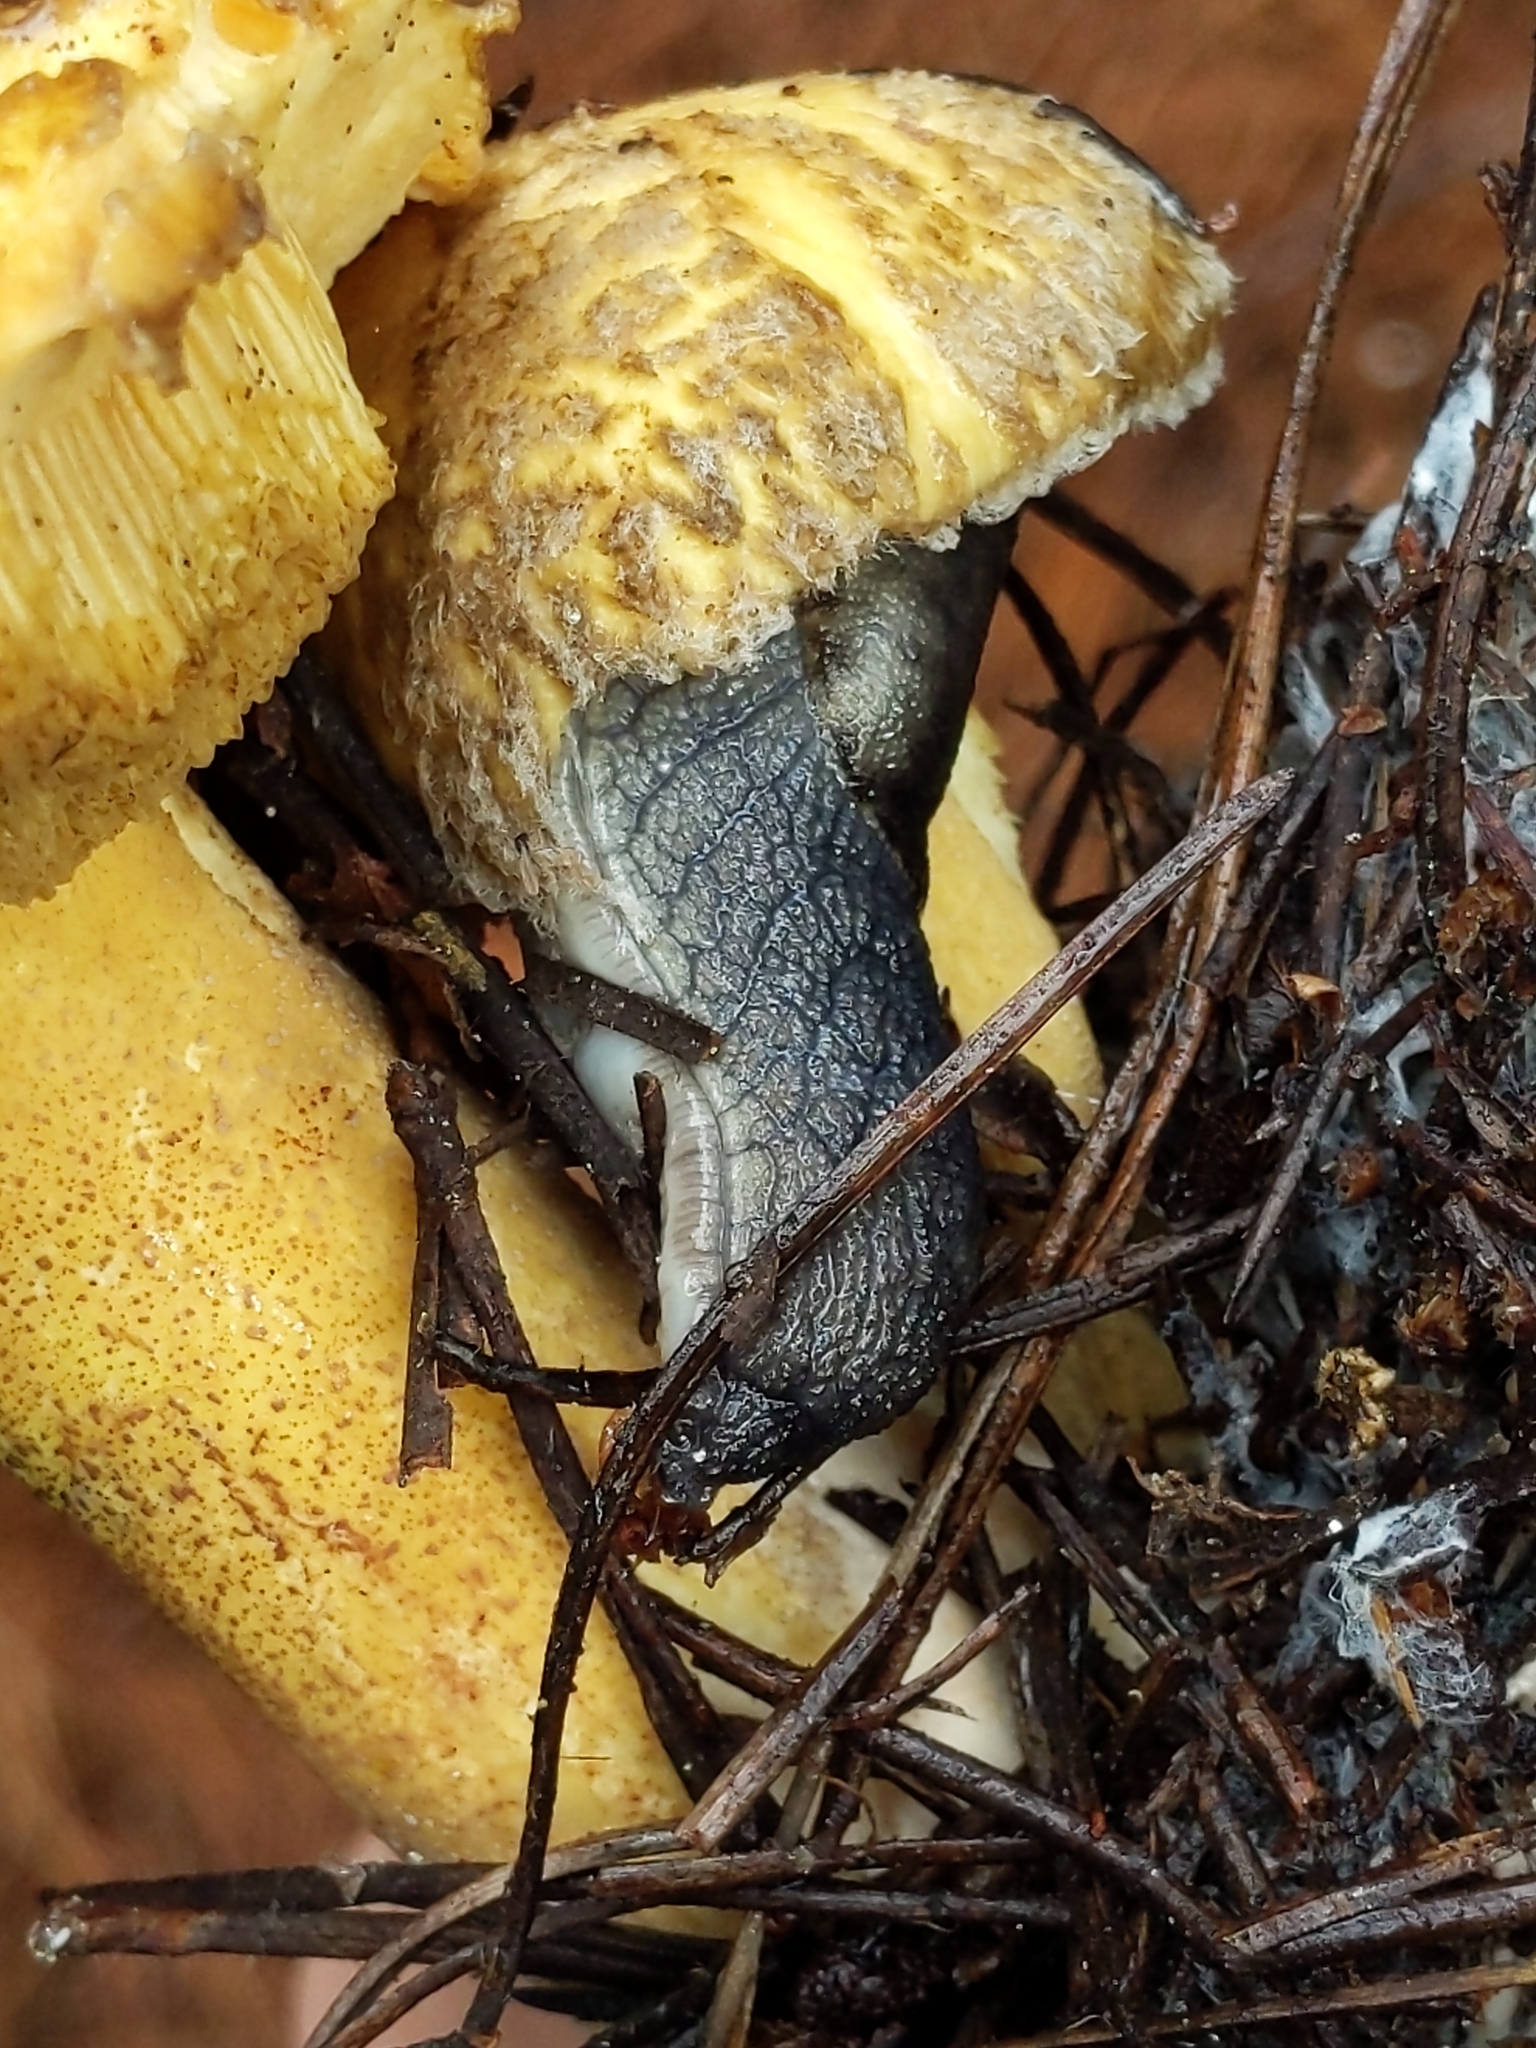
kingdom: Animalia
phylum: Mollusca
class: Gastropoda
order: Stylommatophora
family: Ariolimacidae
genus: Prophysaon
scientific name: Prophysaon andersonii
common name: Reticulate taildropper
